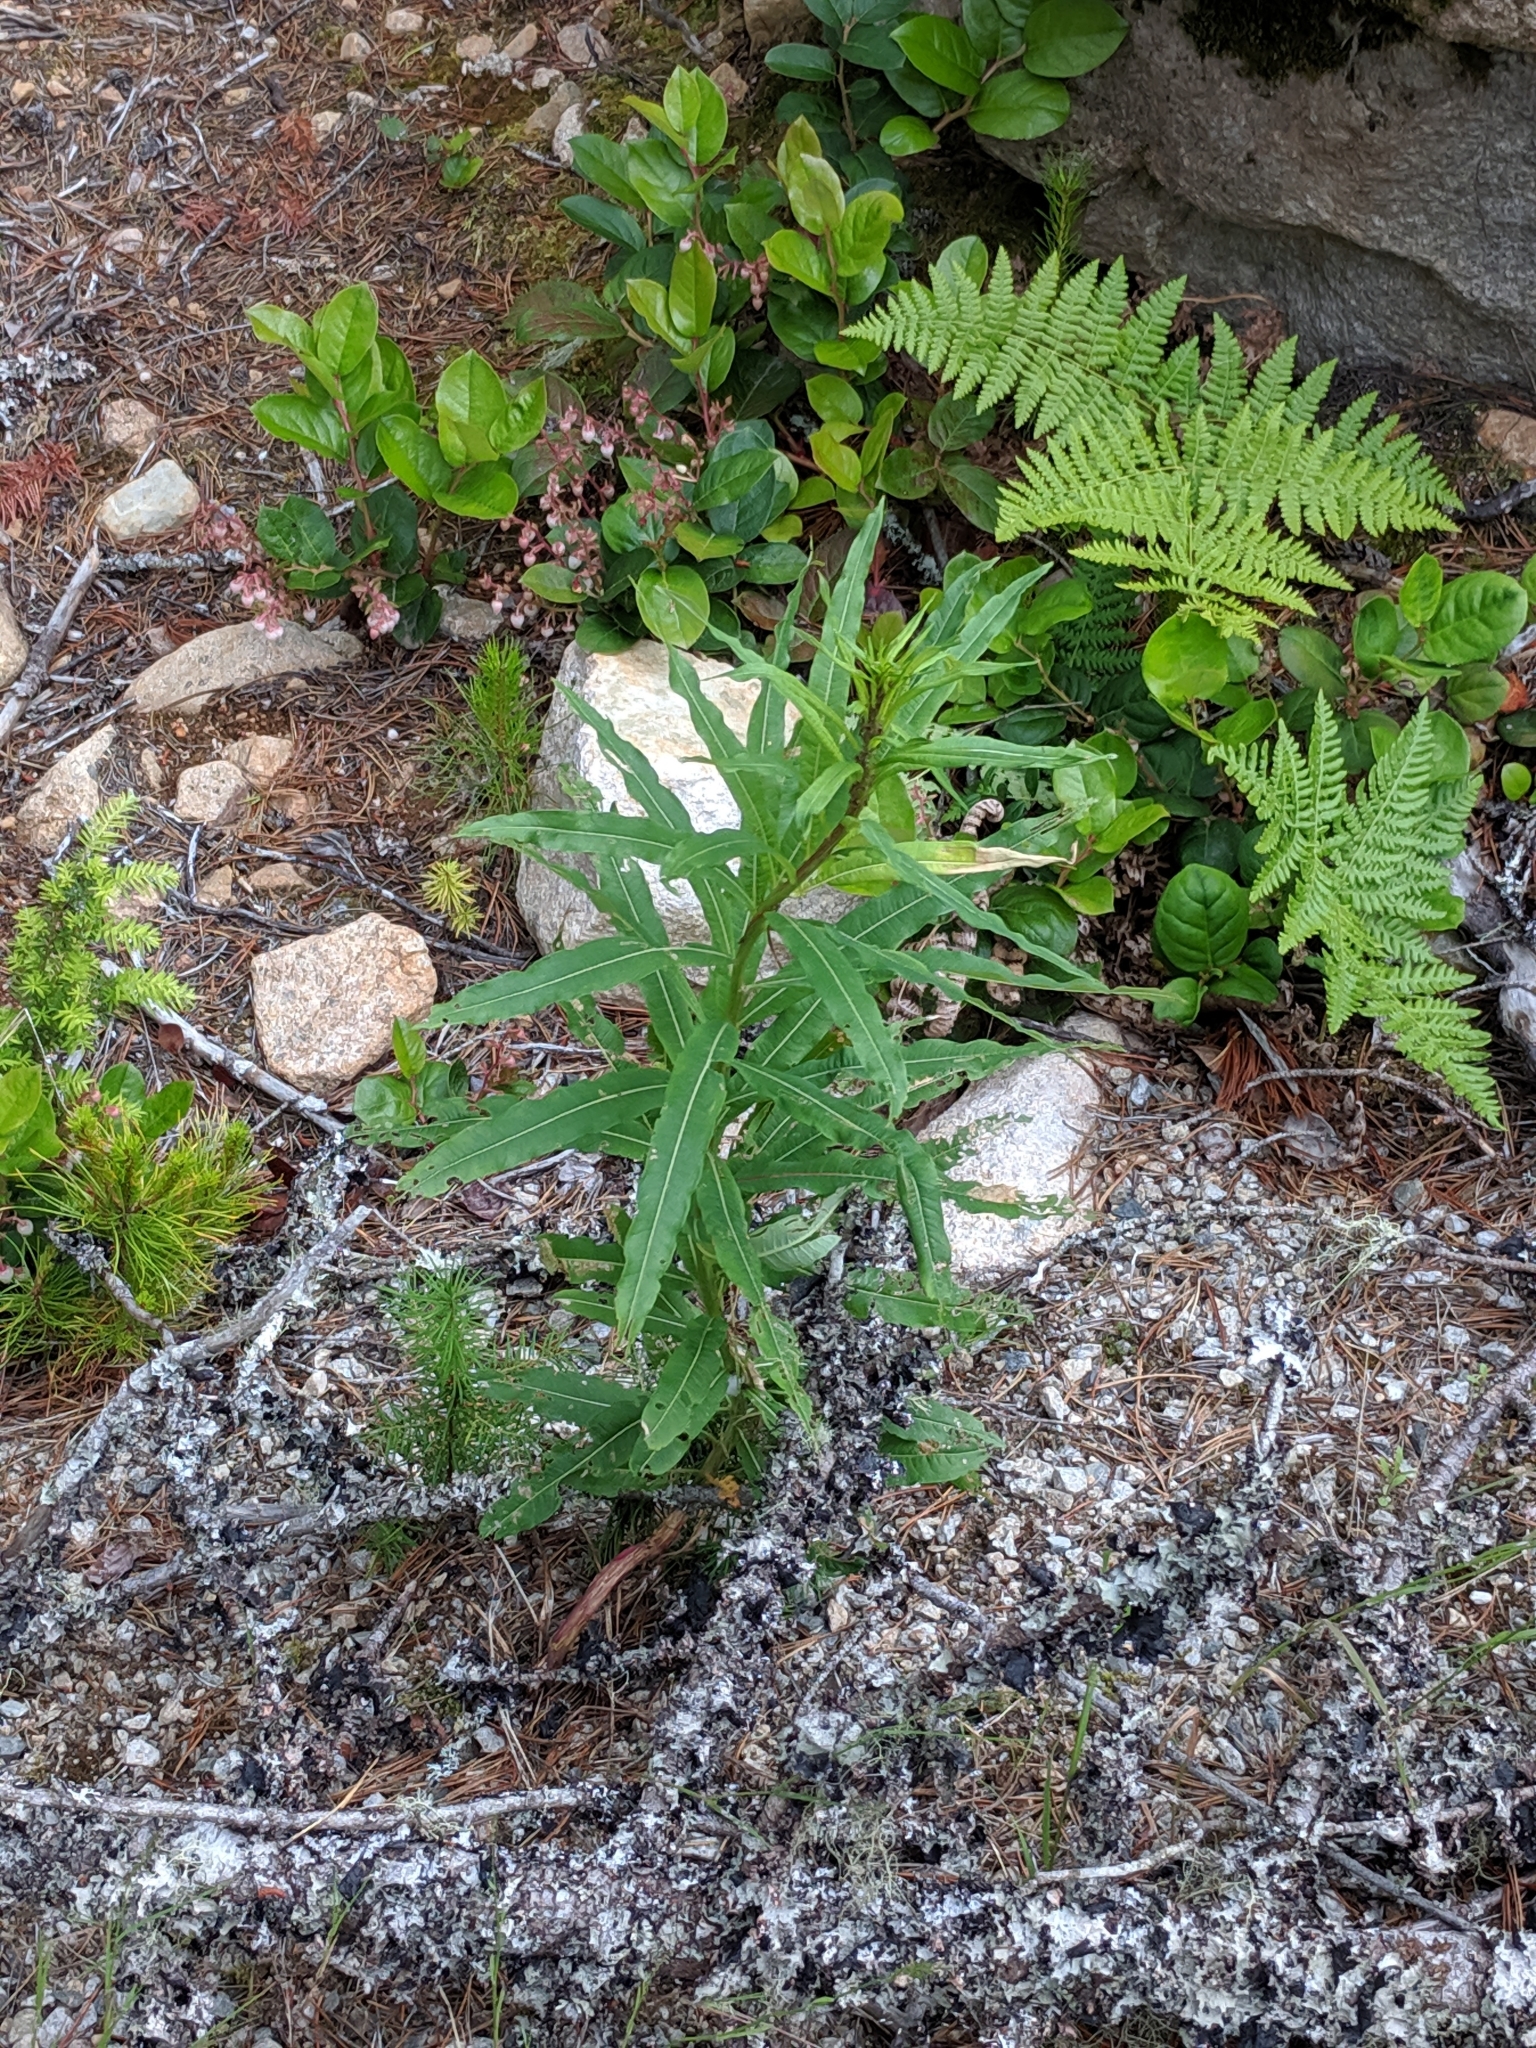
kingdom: Plantae
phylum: Tracheophyta
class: Magnoliopsida
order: Myrtales
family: Onagraceae
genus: Chamaenerion
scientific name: Chamaenerion angustifolium
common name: Fireweed
